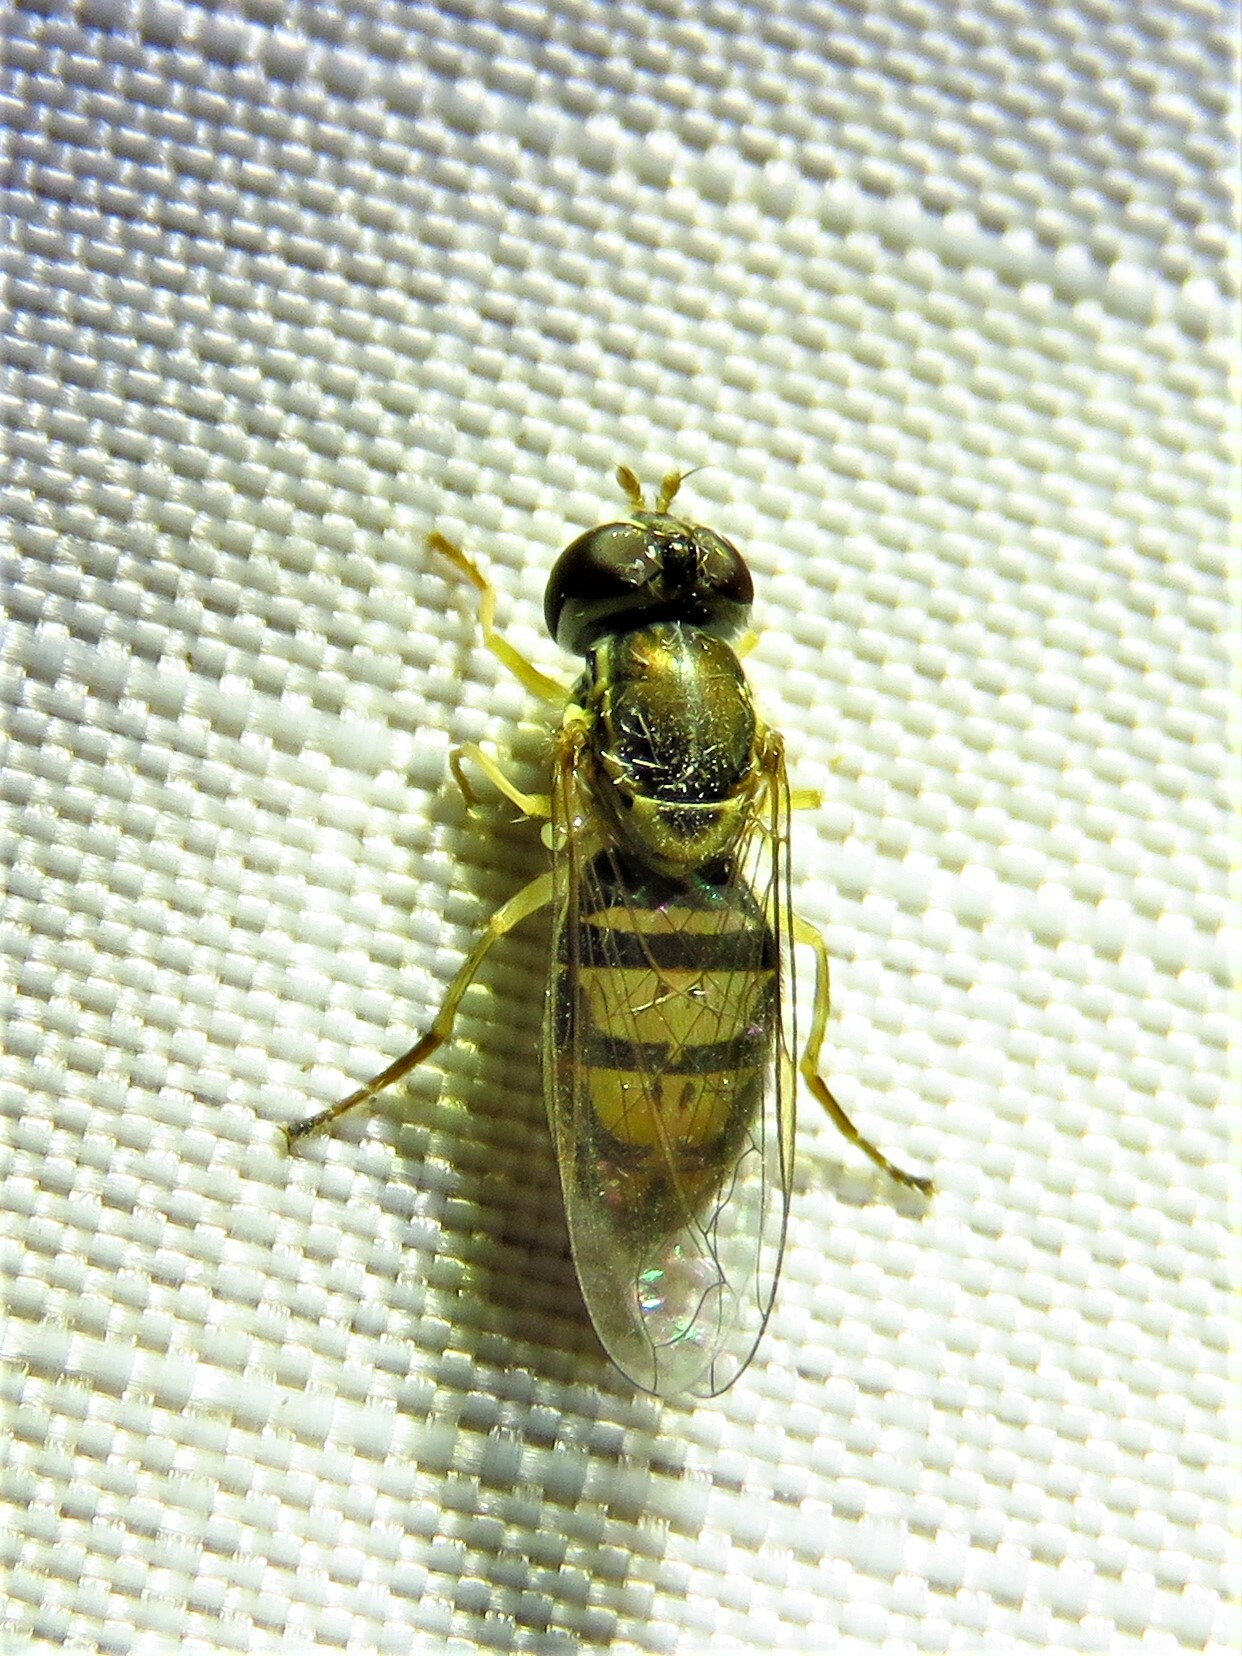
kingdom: Animalia
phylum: Arthropoda
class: Insecta
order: Diptera
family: Syrphidae
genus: Toxomerus
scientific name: Toxomerus marginatus
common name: Syrphid fly
